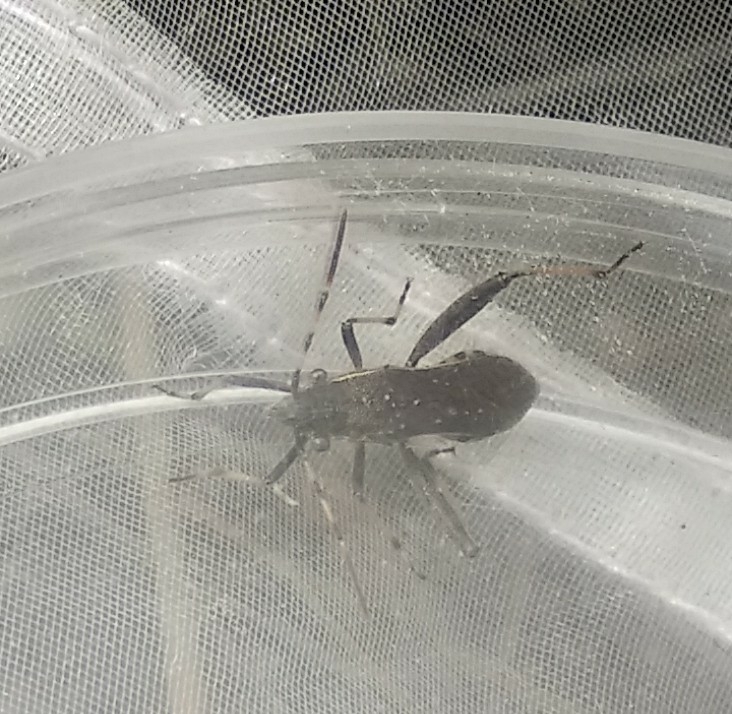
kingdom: Animalia
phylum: Arthropoda
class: Insecta
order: Hemiptera
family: Alydidae
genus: Camptopus
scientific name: Camptopus lateralis
